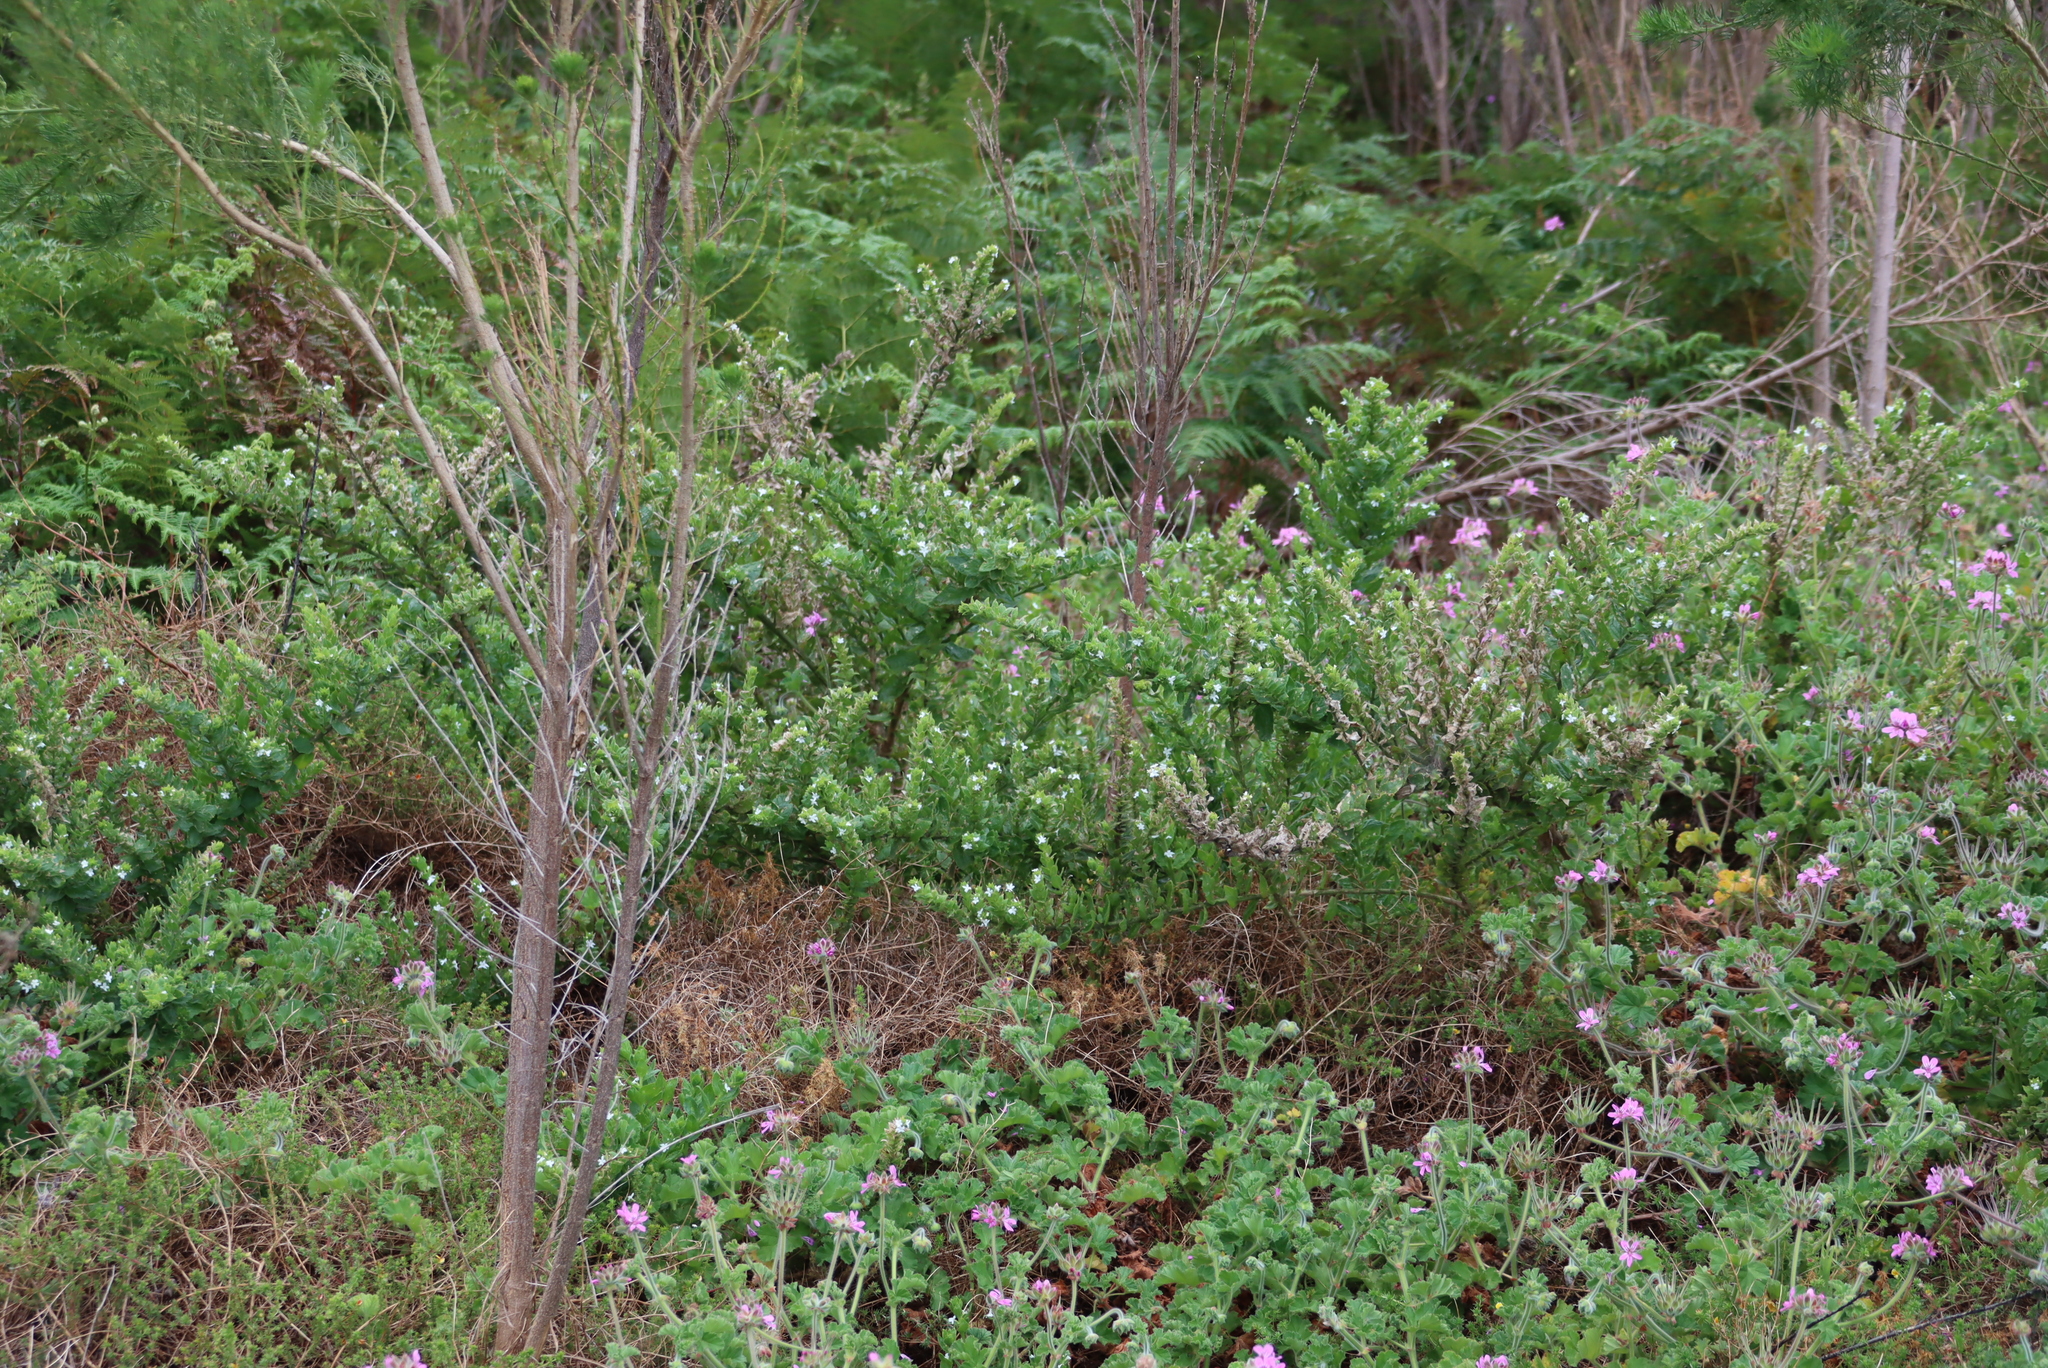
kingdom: Plantae
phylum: Tracheophyta
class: Magnoliopsida
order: Lamiales
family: Scrophulariaceae
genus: Oftia
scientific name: Oftia africana
